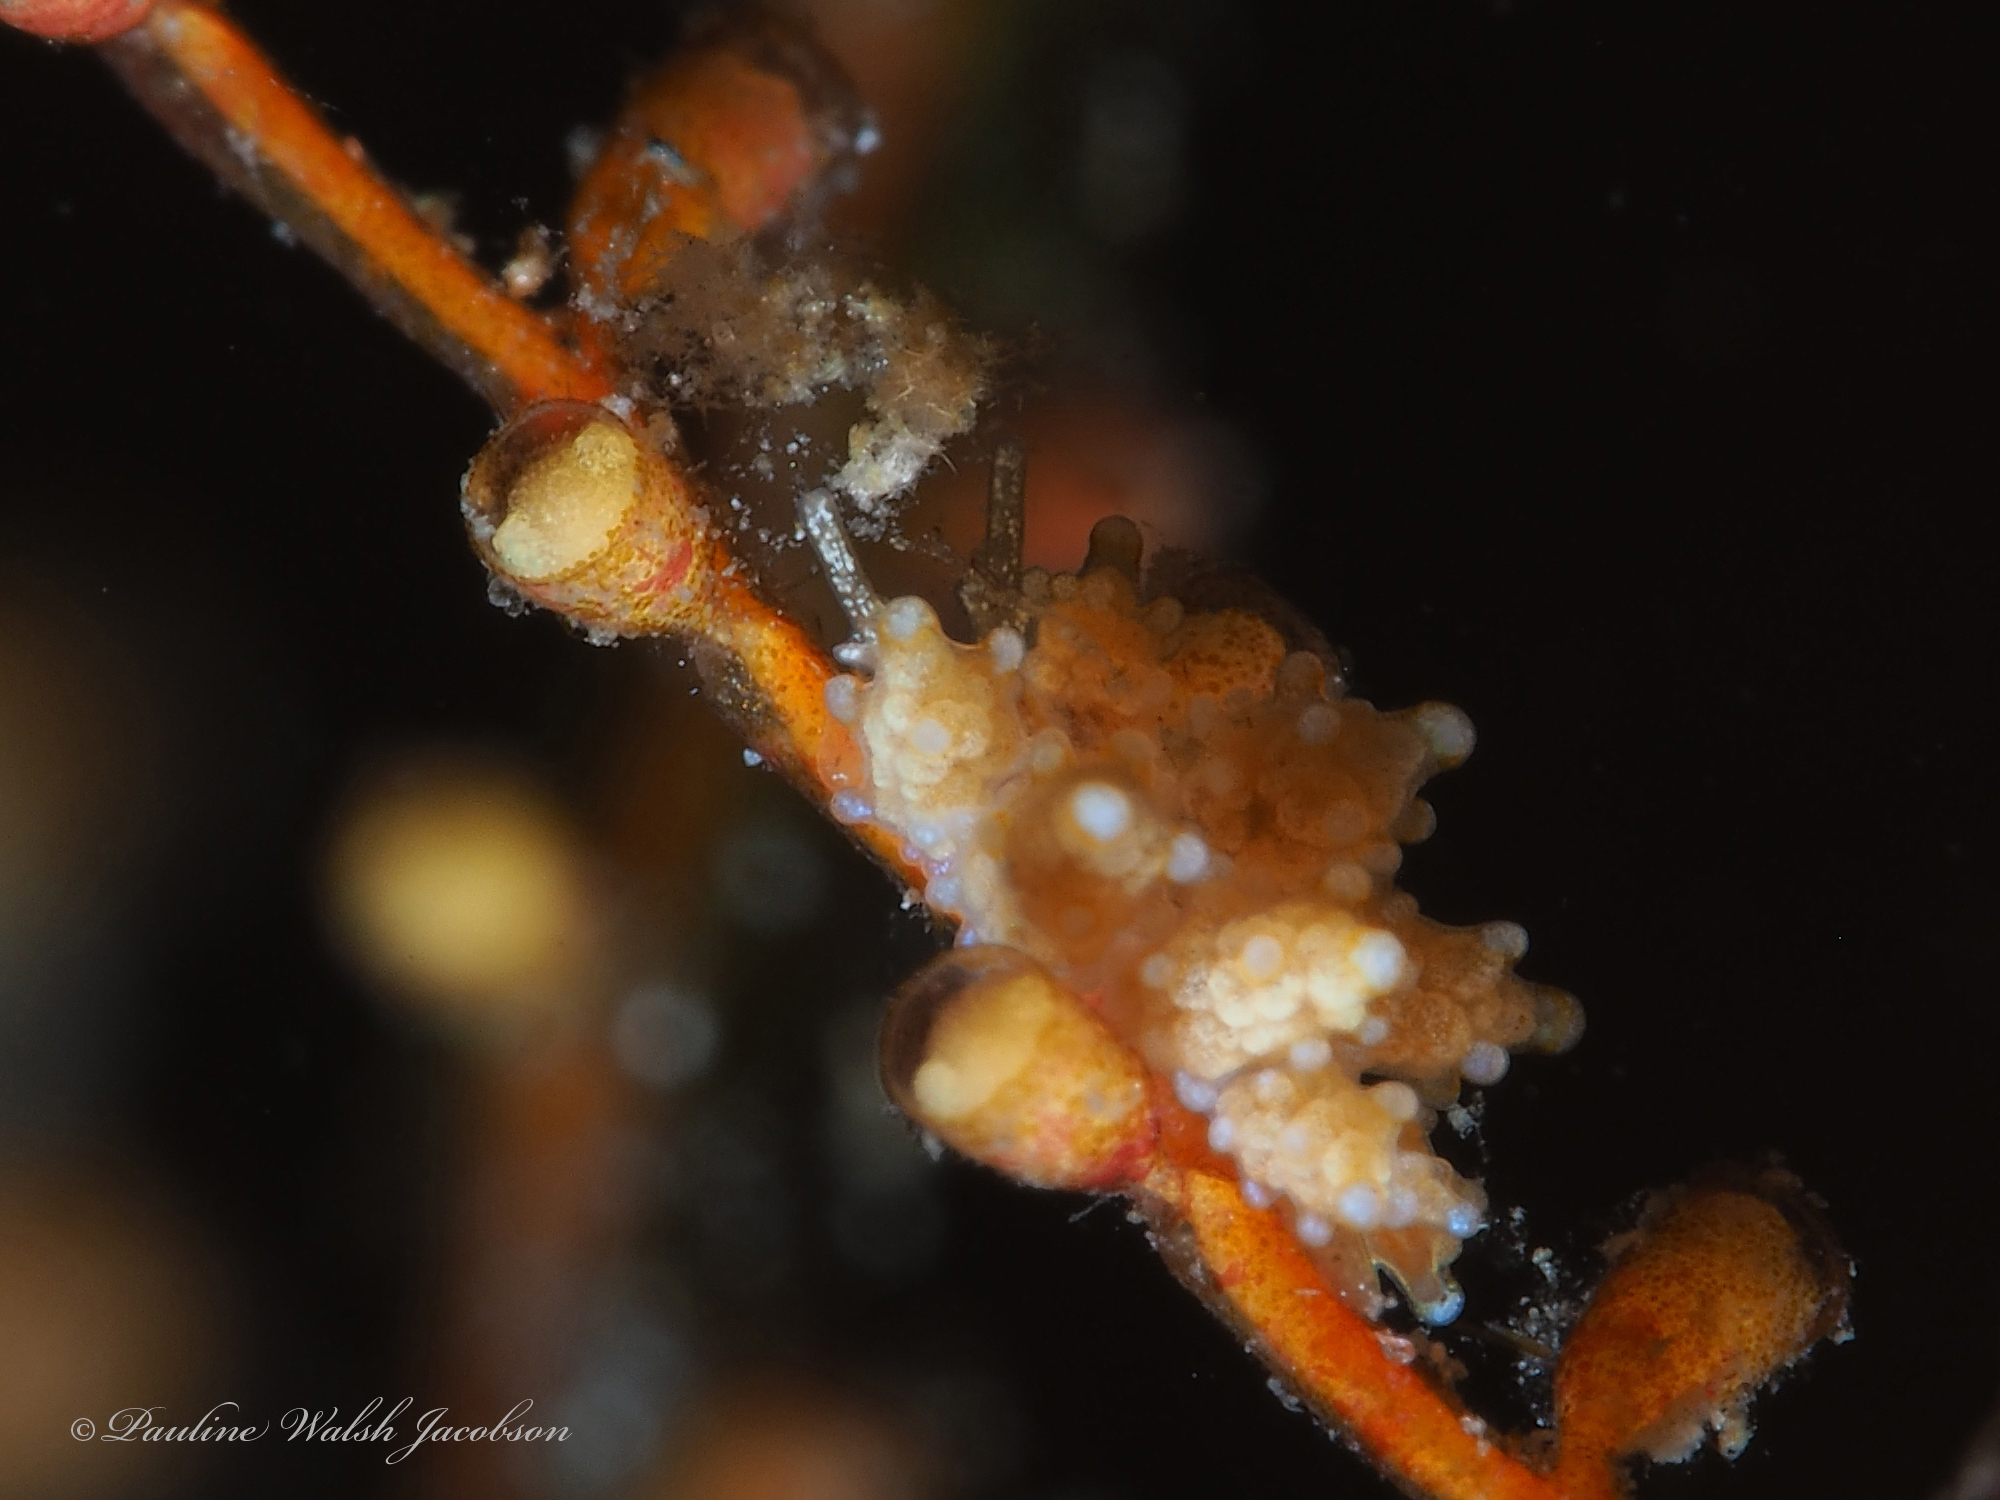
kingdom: Animalia
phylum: Mollusca
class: Gastropoda
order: Nudibranchia
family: Dotidae
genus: Doto
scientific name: Doto torrelavega
